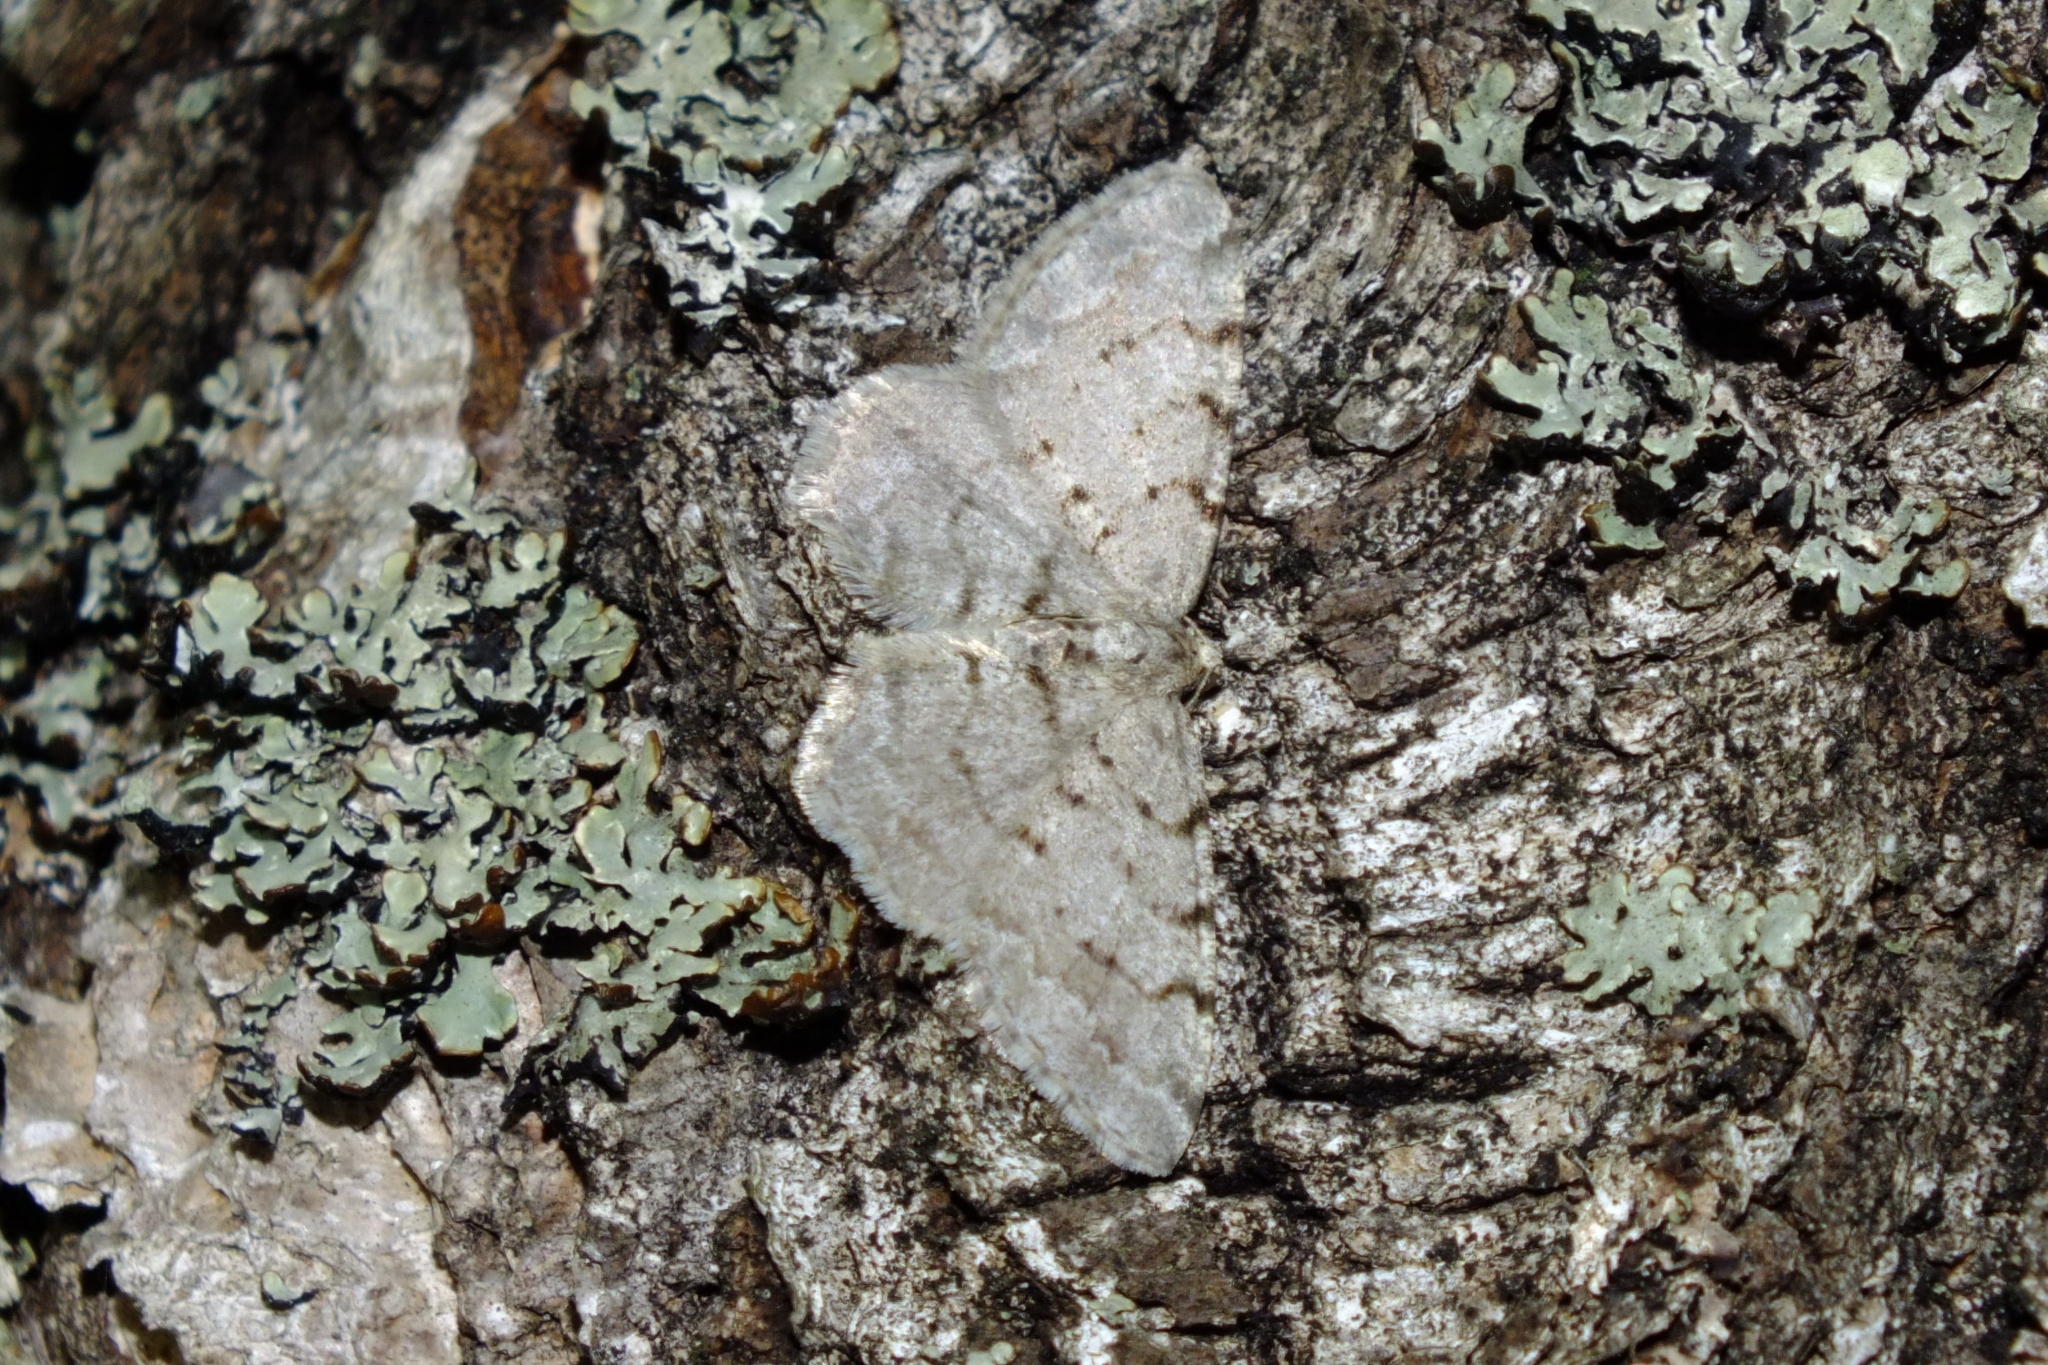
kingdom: Animalia
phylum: Arthropoda
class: Insecta
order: Lepidoptera
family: Geometridae
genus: Aethalura
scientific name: Aethalura punctulata
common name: Grey birch
